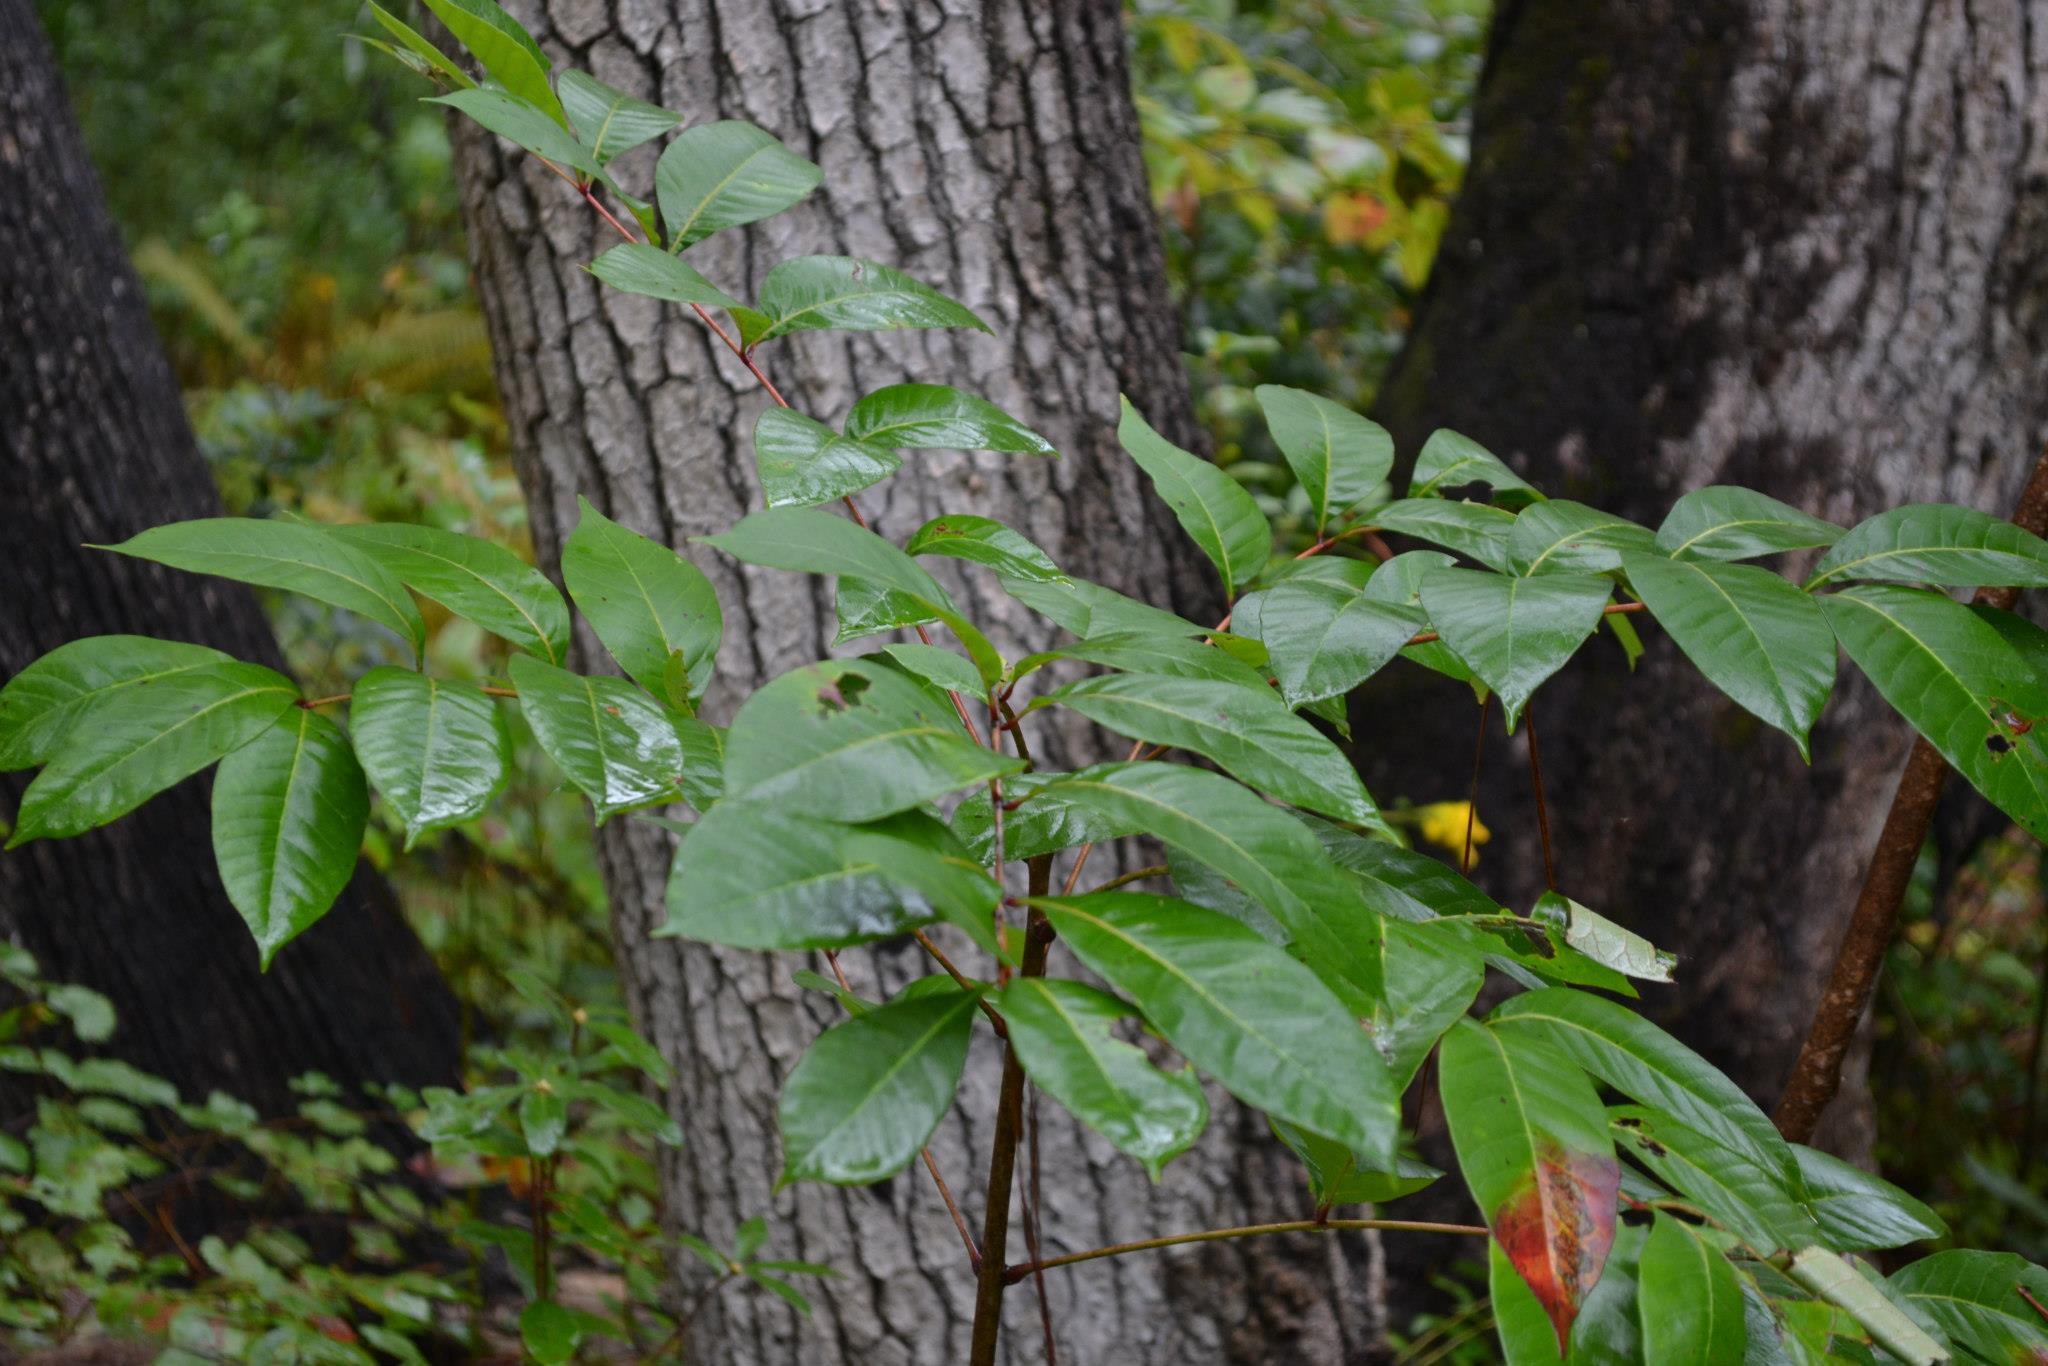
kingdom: Plantae
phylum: Tracheophyta
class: Magnoliopsida
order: Sapindales
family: Anacardiaceae
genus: Toxicodendron
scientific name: Toxicodendron vernix
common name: Poison sumac
